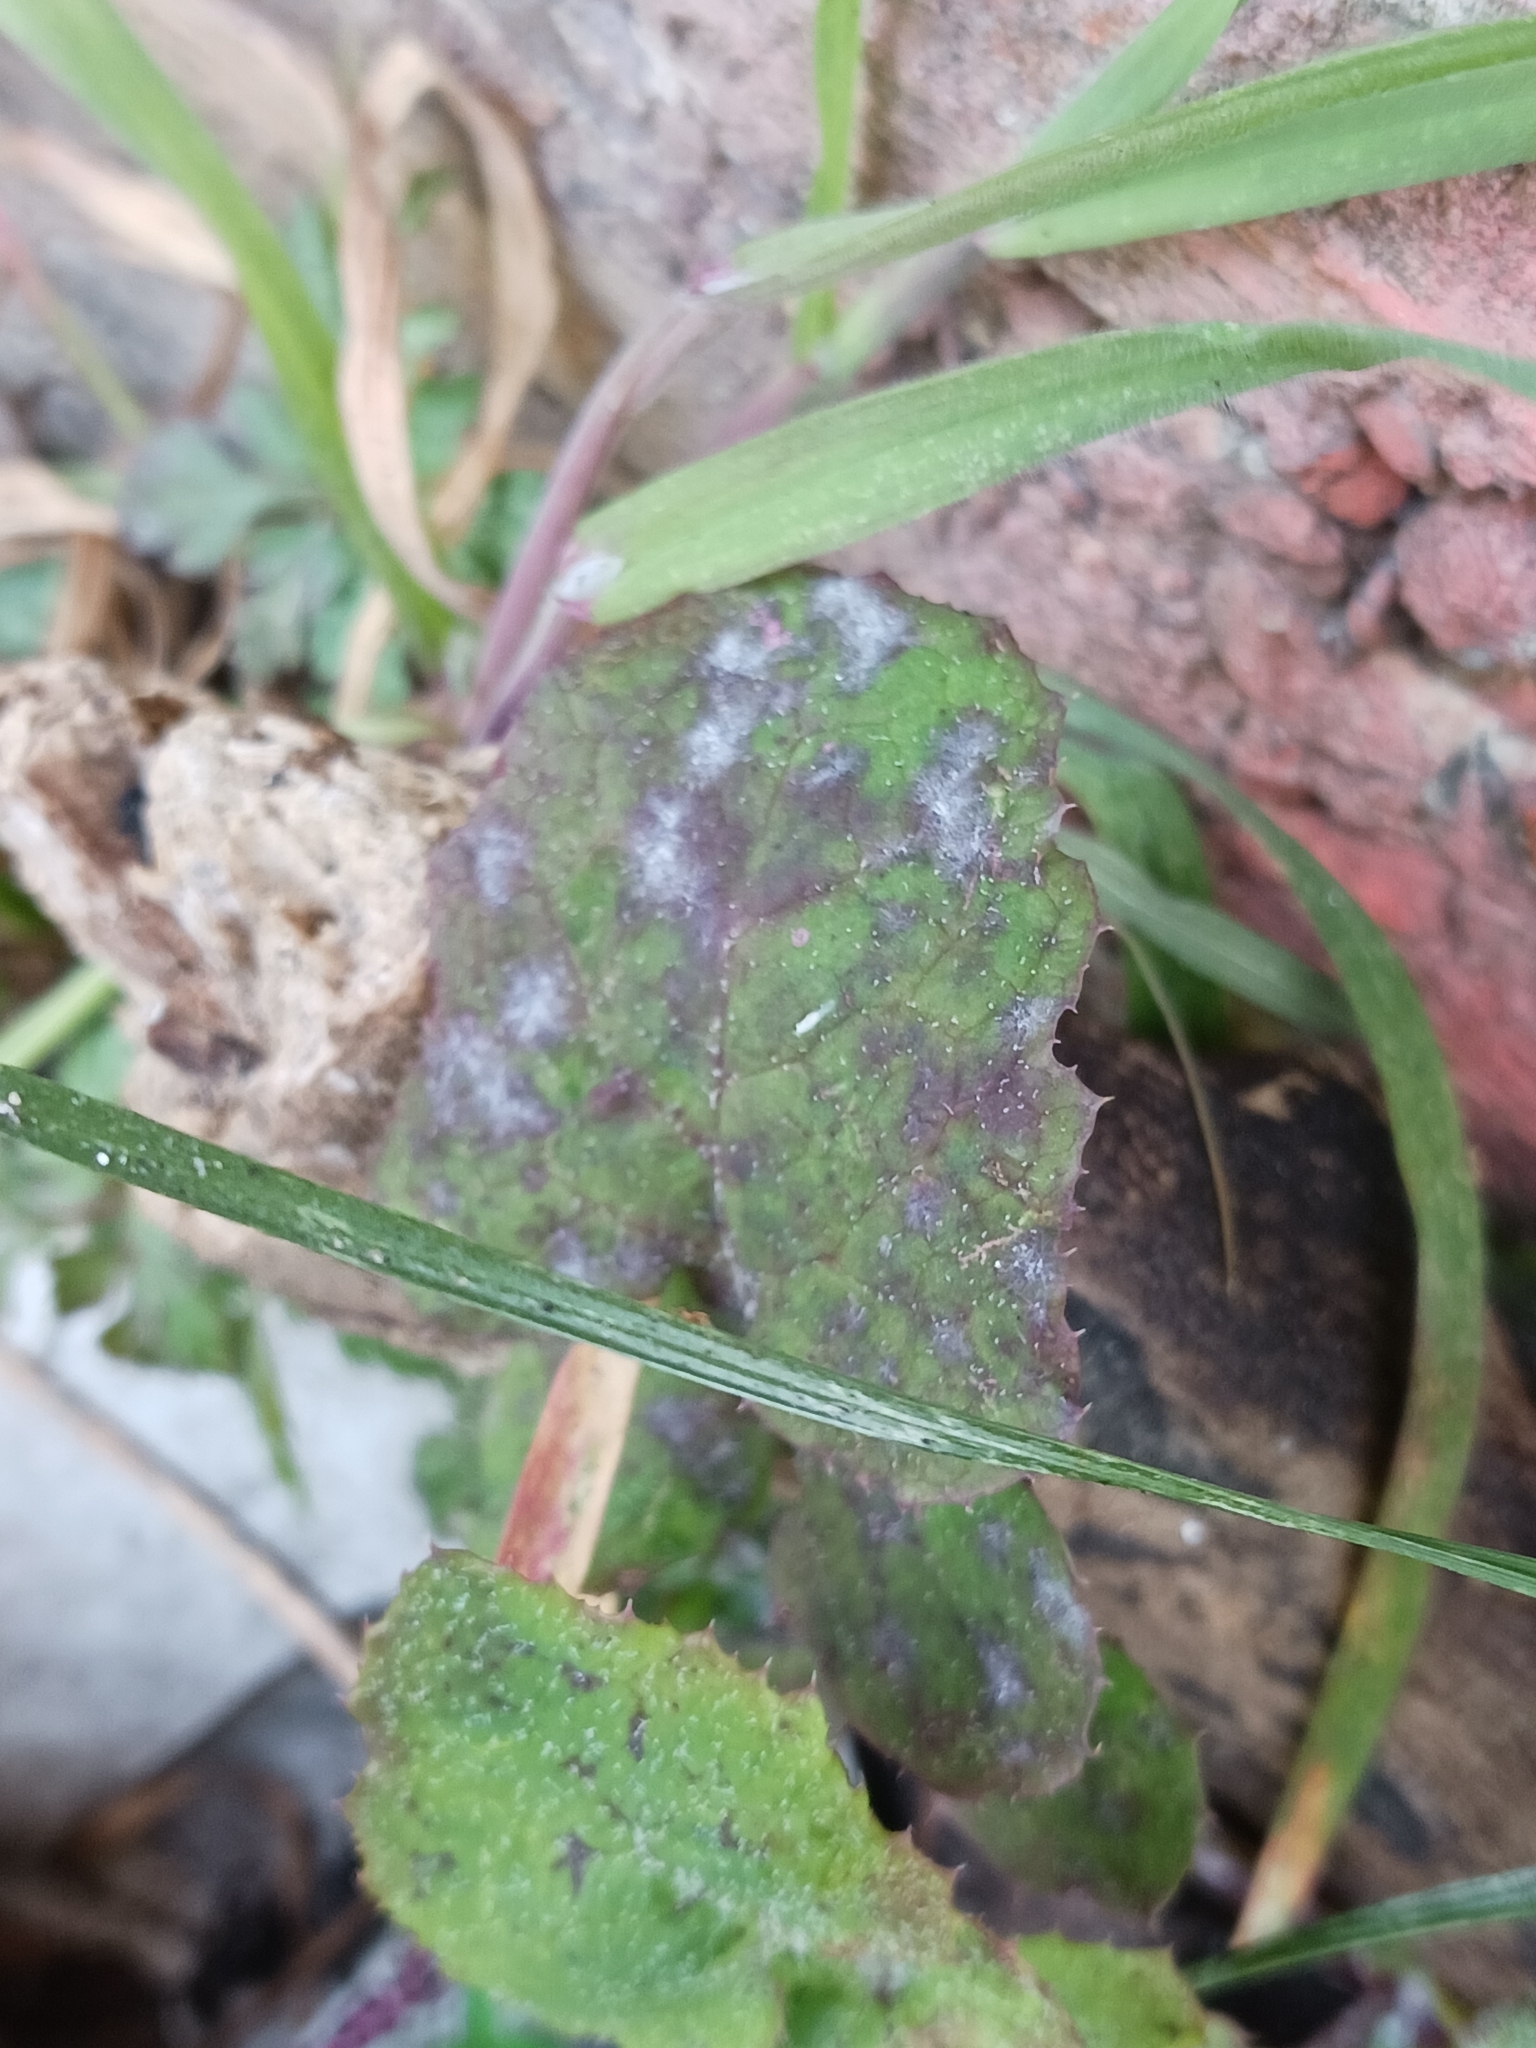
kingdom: Fungi
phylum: Ascomycota
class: Leotiomycetes
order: Helotiales
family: Erysiphaceae
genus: Golovinomyces
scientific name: Golovinomyces sonchicola
